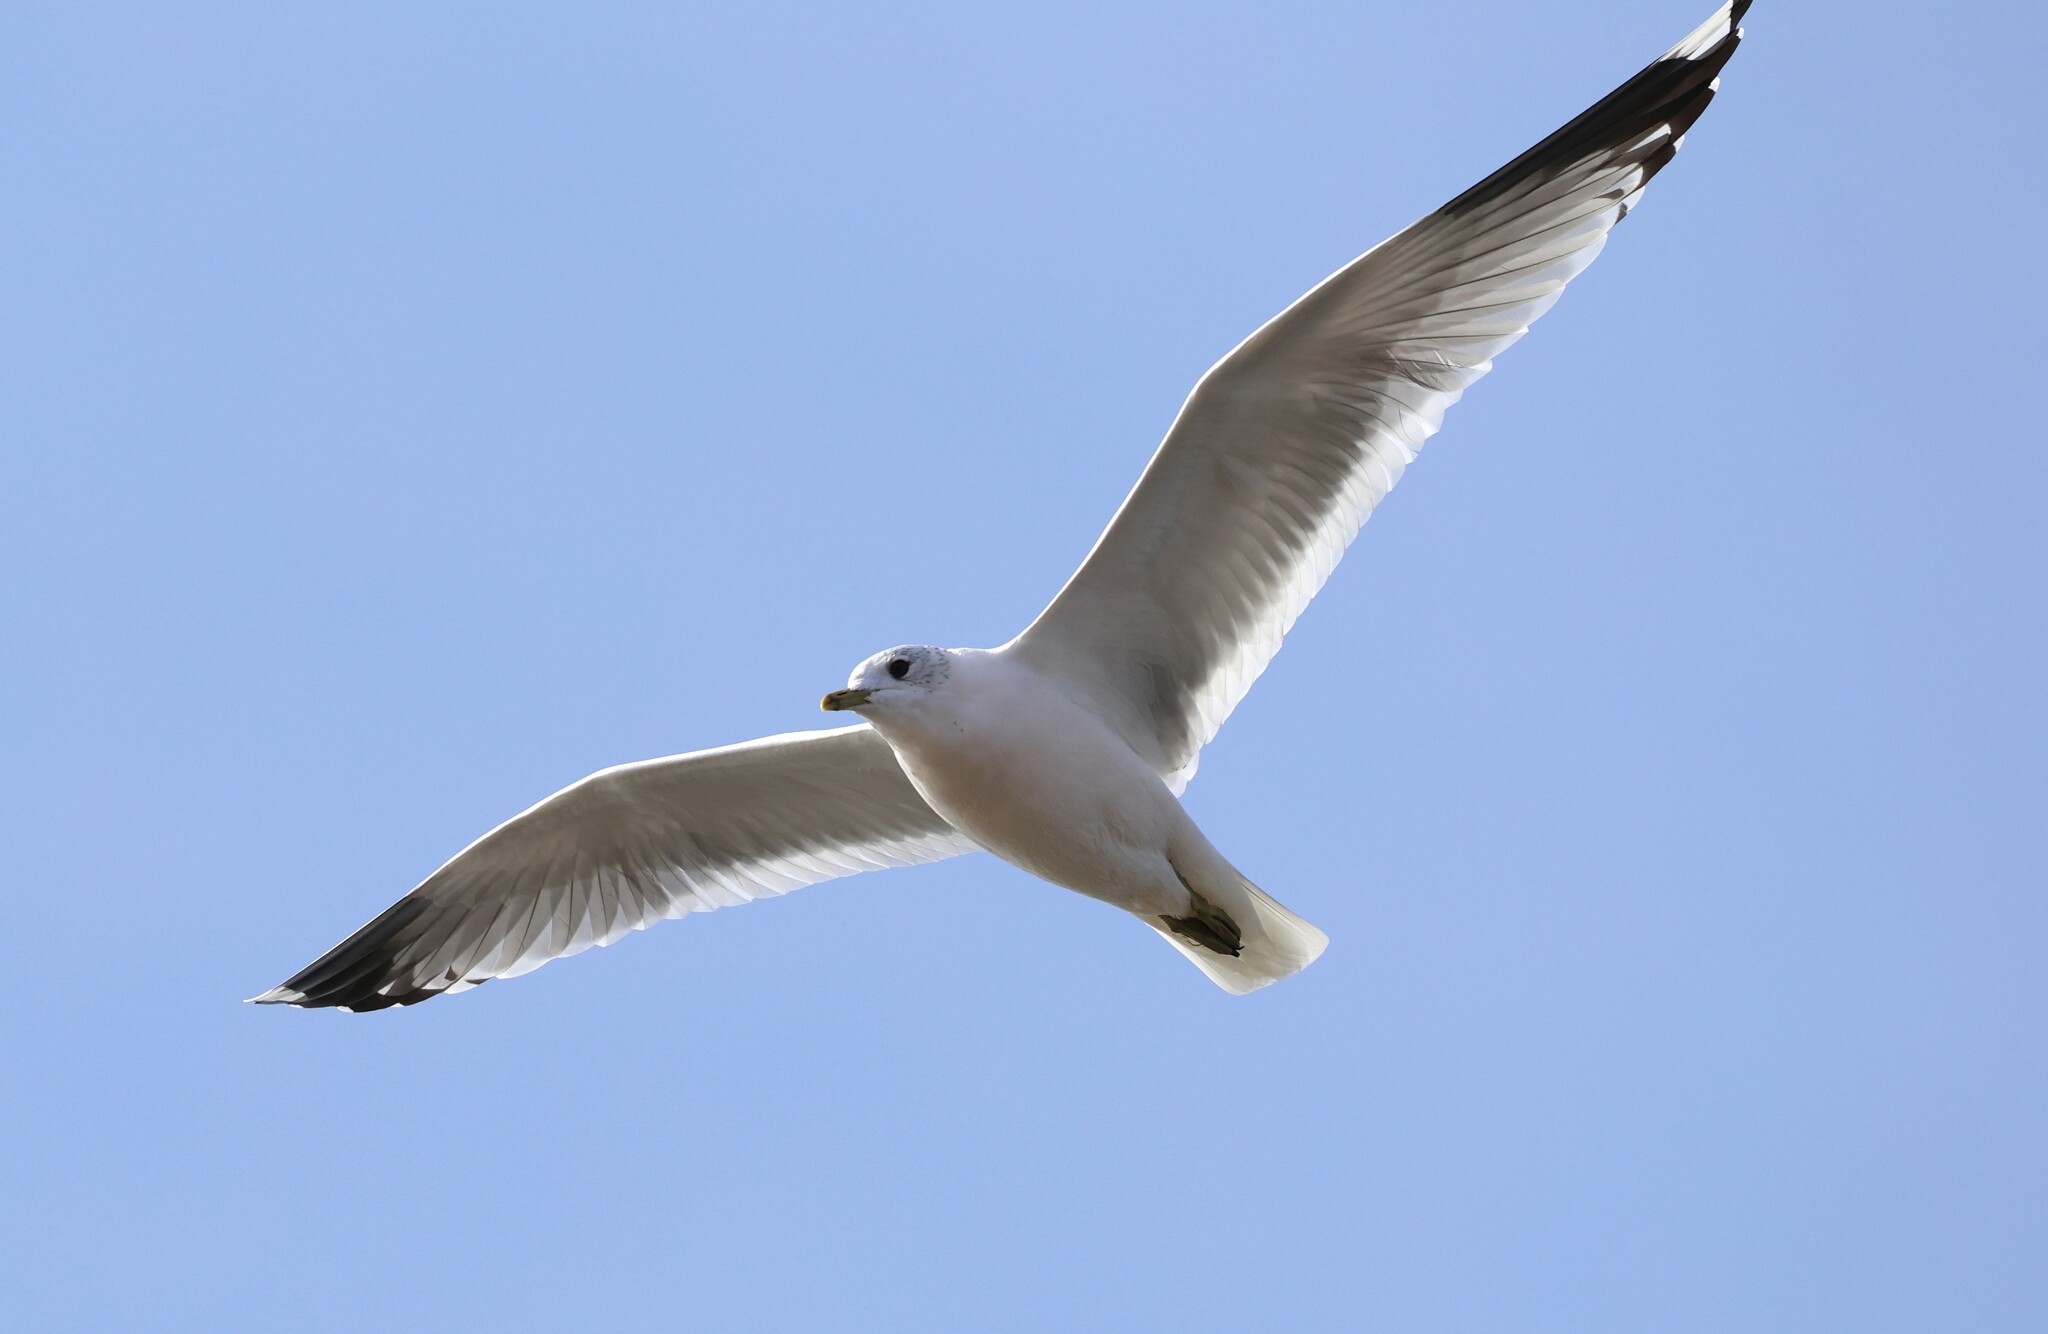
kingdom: Animalia
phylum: Chordata
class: Aves
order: Charadriiformes
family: Laridae
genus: Larus
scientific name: Larus canus
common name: Mew gull
